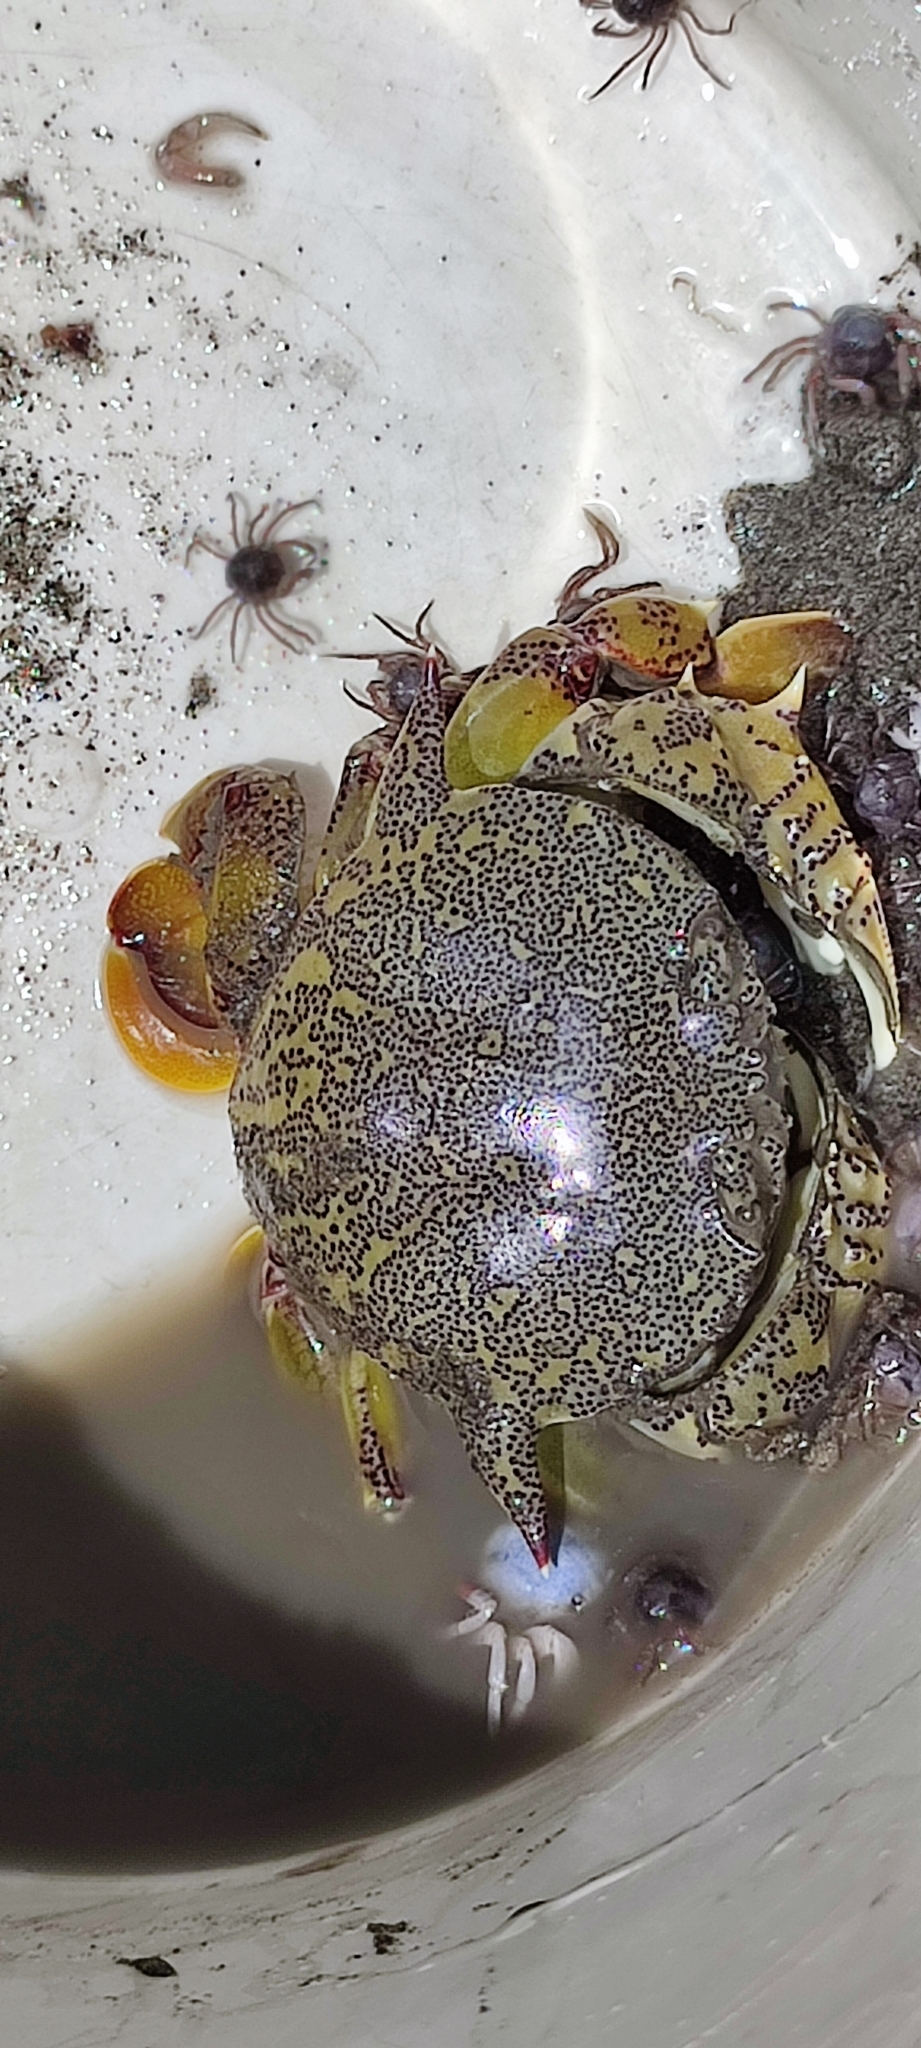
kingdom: Animalia
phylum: Arthropoda
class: Malacostraca
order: Decapoda
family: Matutidae
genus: Matuta
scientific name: Matuta victor
